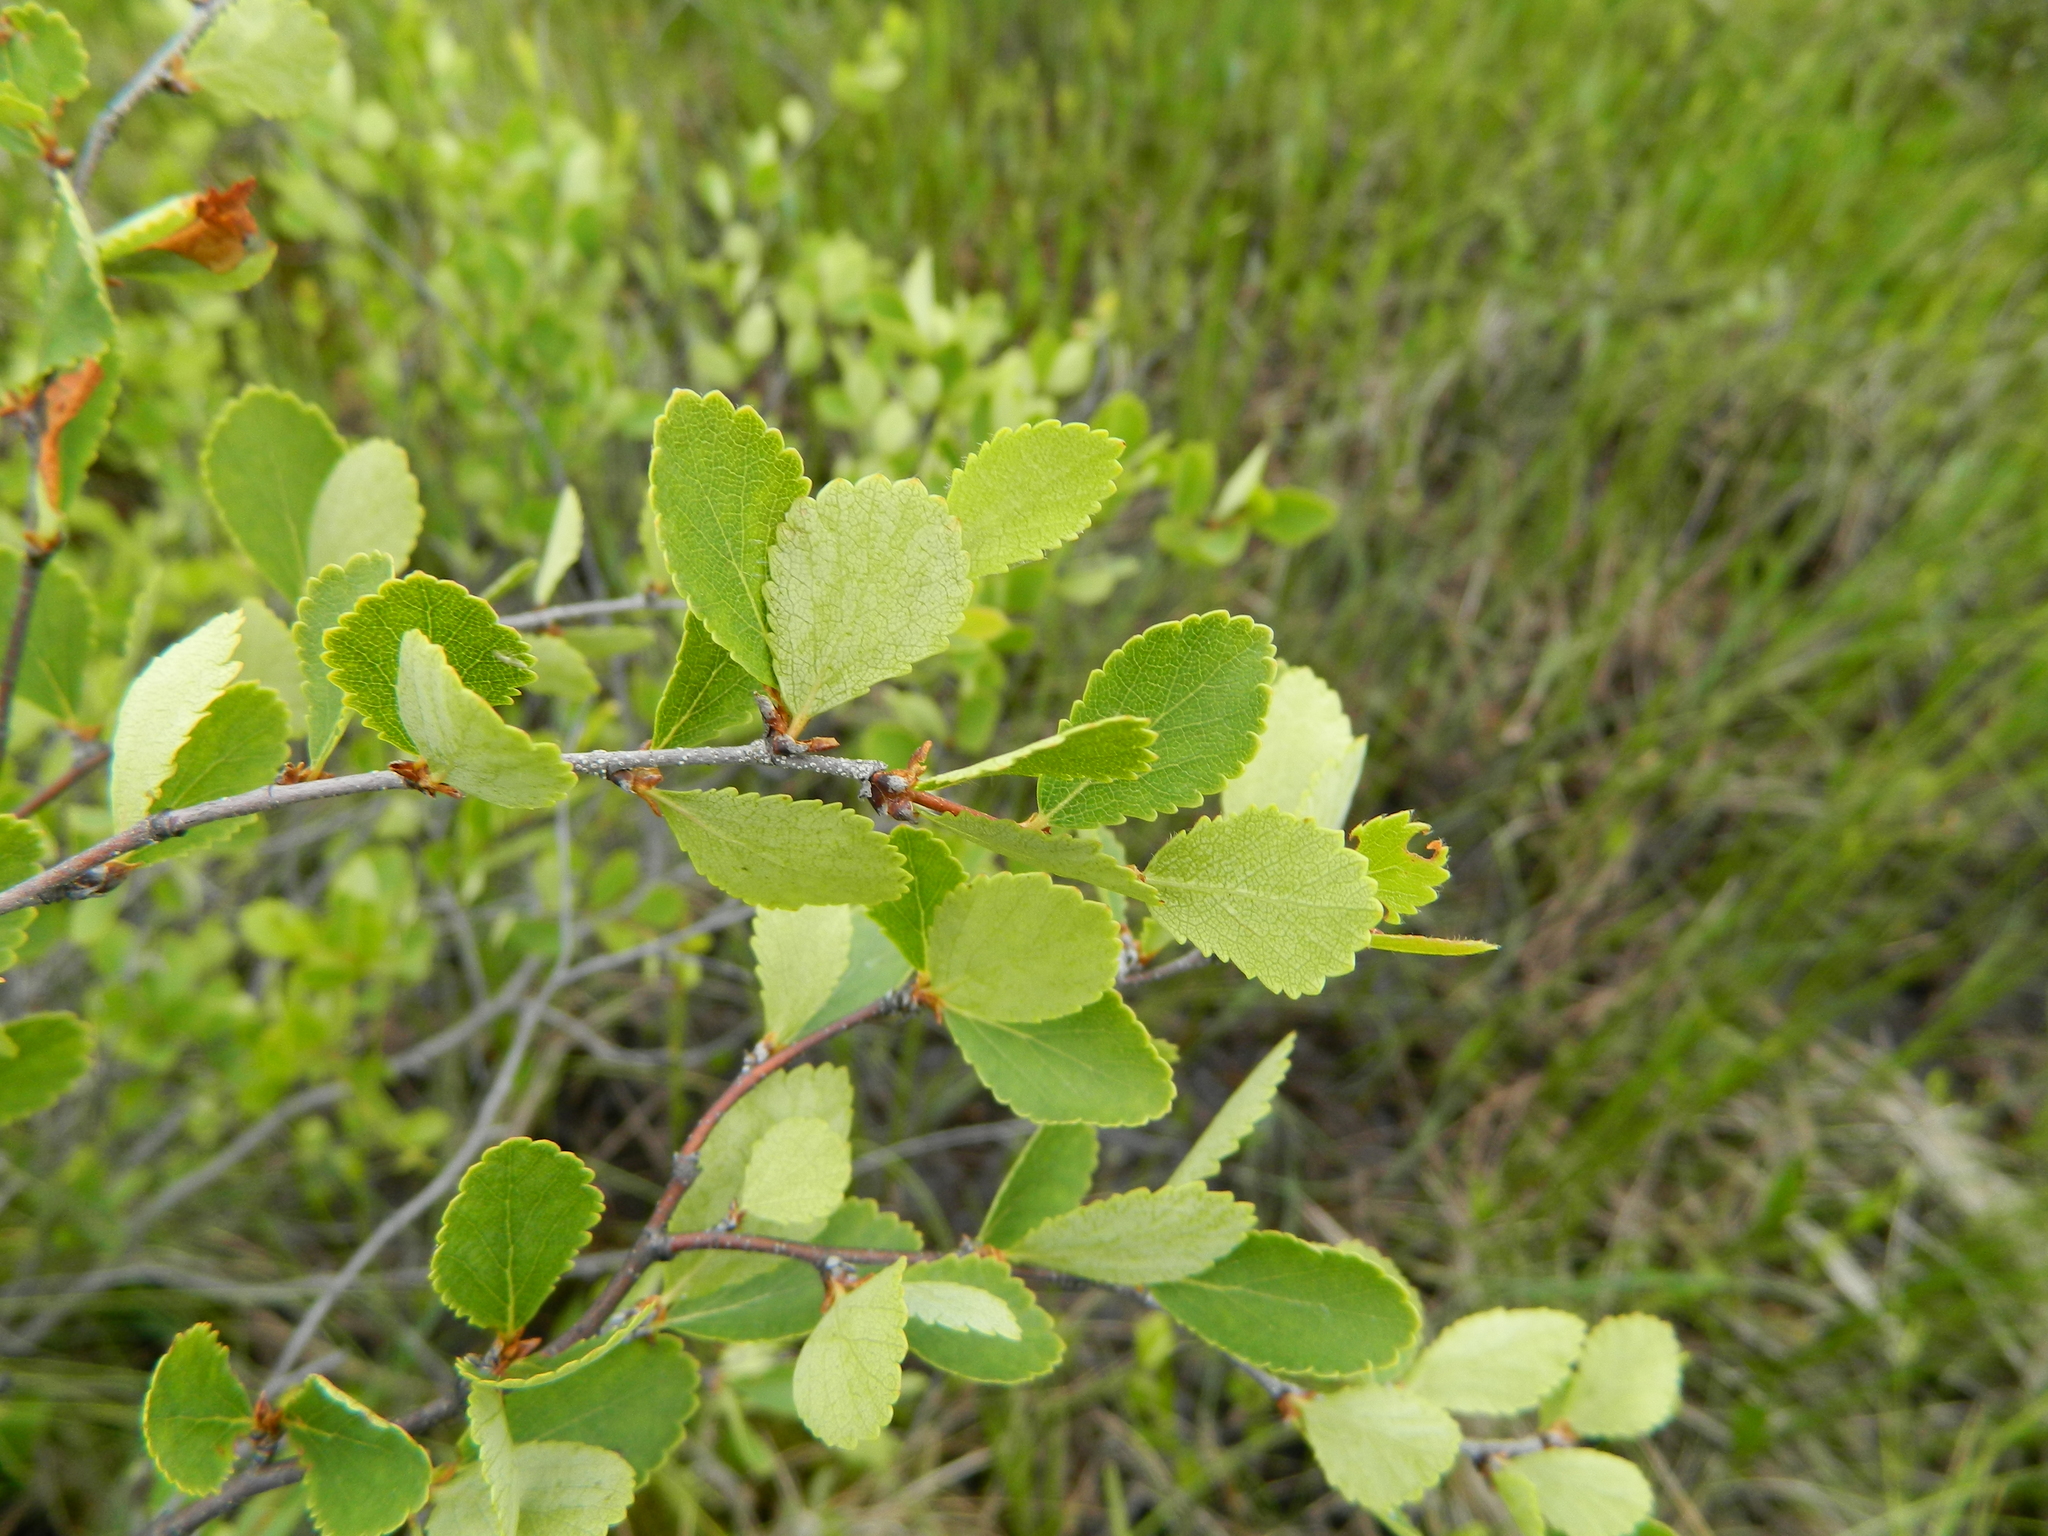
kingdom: Plantae
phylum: Tracheophyta
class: Magnoliopsida
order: Fagales
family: Betulaceae
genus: Betula
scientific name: Betula pumila
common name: Bog birch
